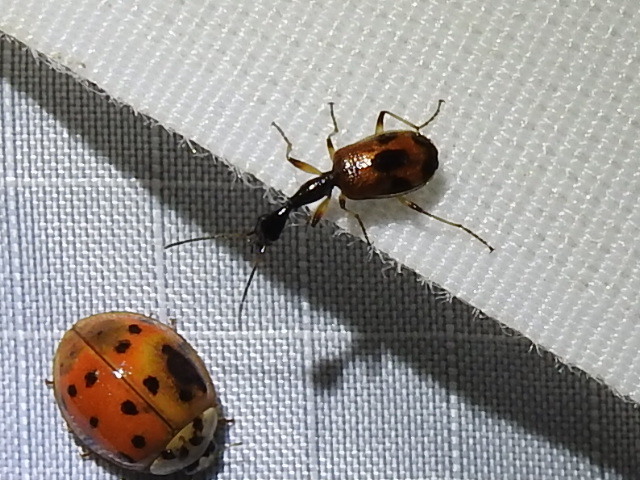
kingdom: Animalia
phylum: Arthropoda
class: Insecta
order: Coleoptera
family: Carabidae
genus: Colliuris
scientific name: Colliuris pensylvanica
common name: Long-necked ground beetle
